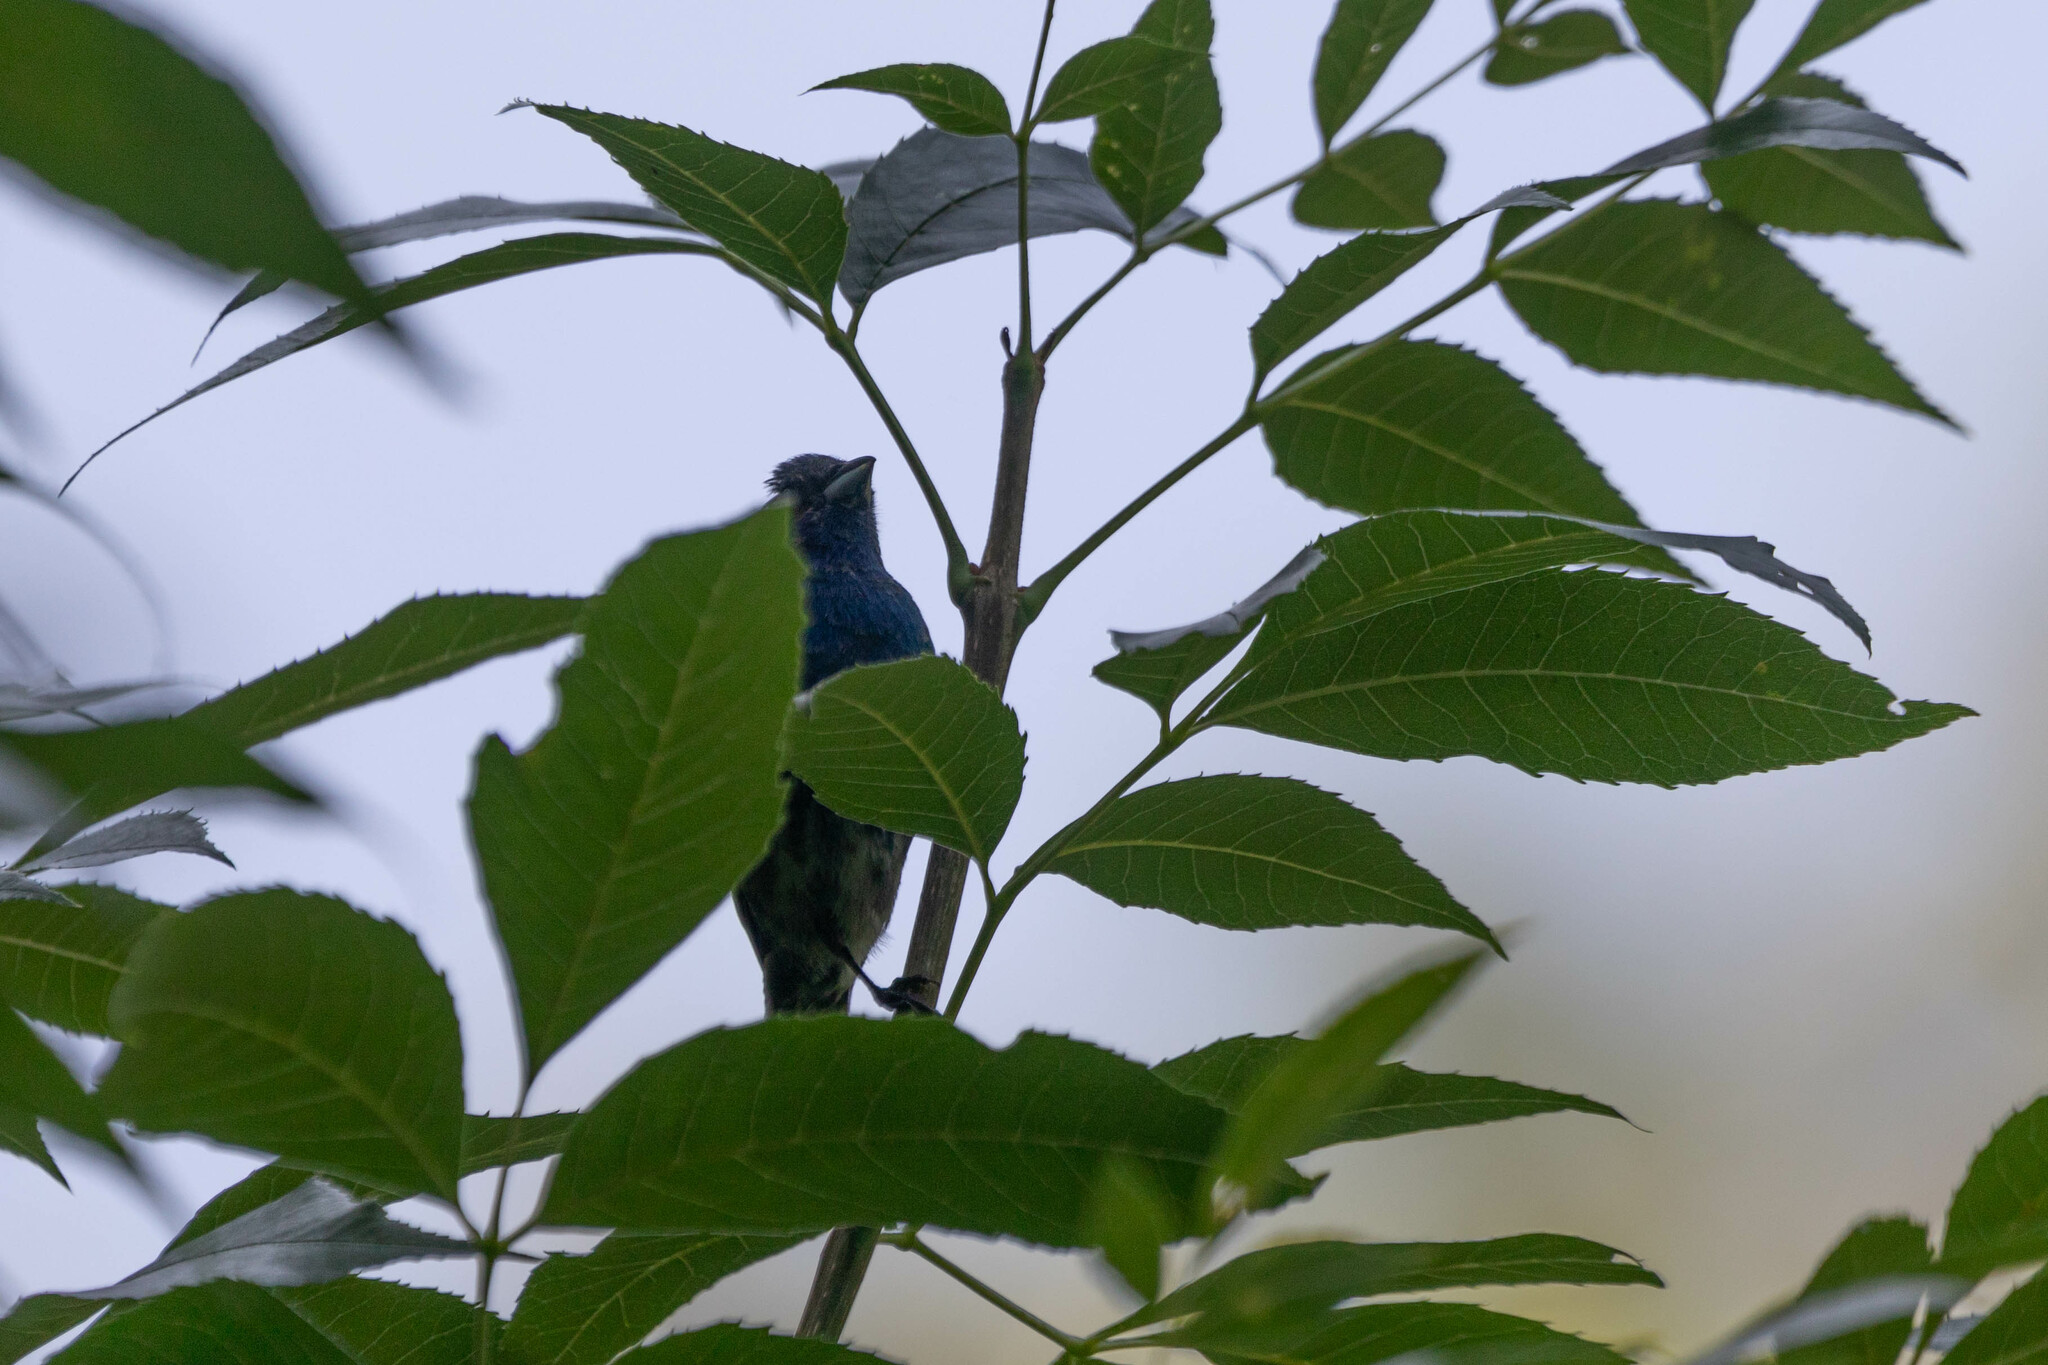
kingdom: Animalia
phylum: Chordata
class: Aves
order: Passeriformes
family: Cardinalidae
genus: Passerina
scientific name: Passerina cyanea
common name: Indigo bunting
